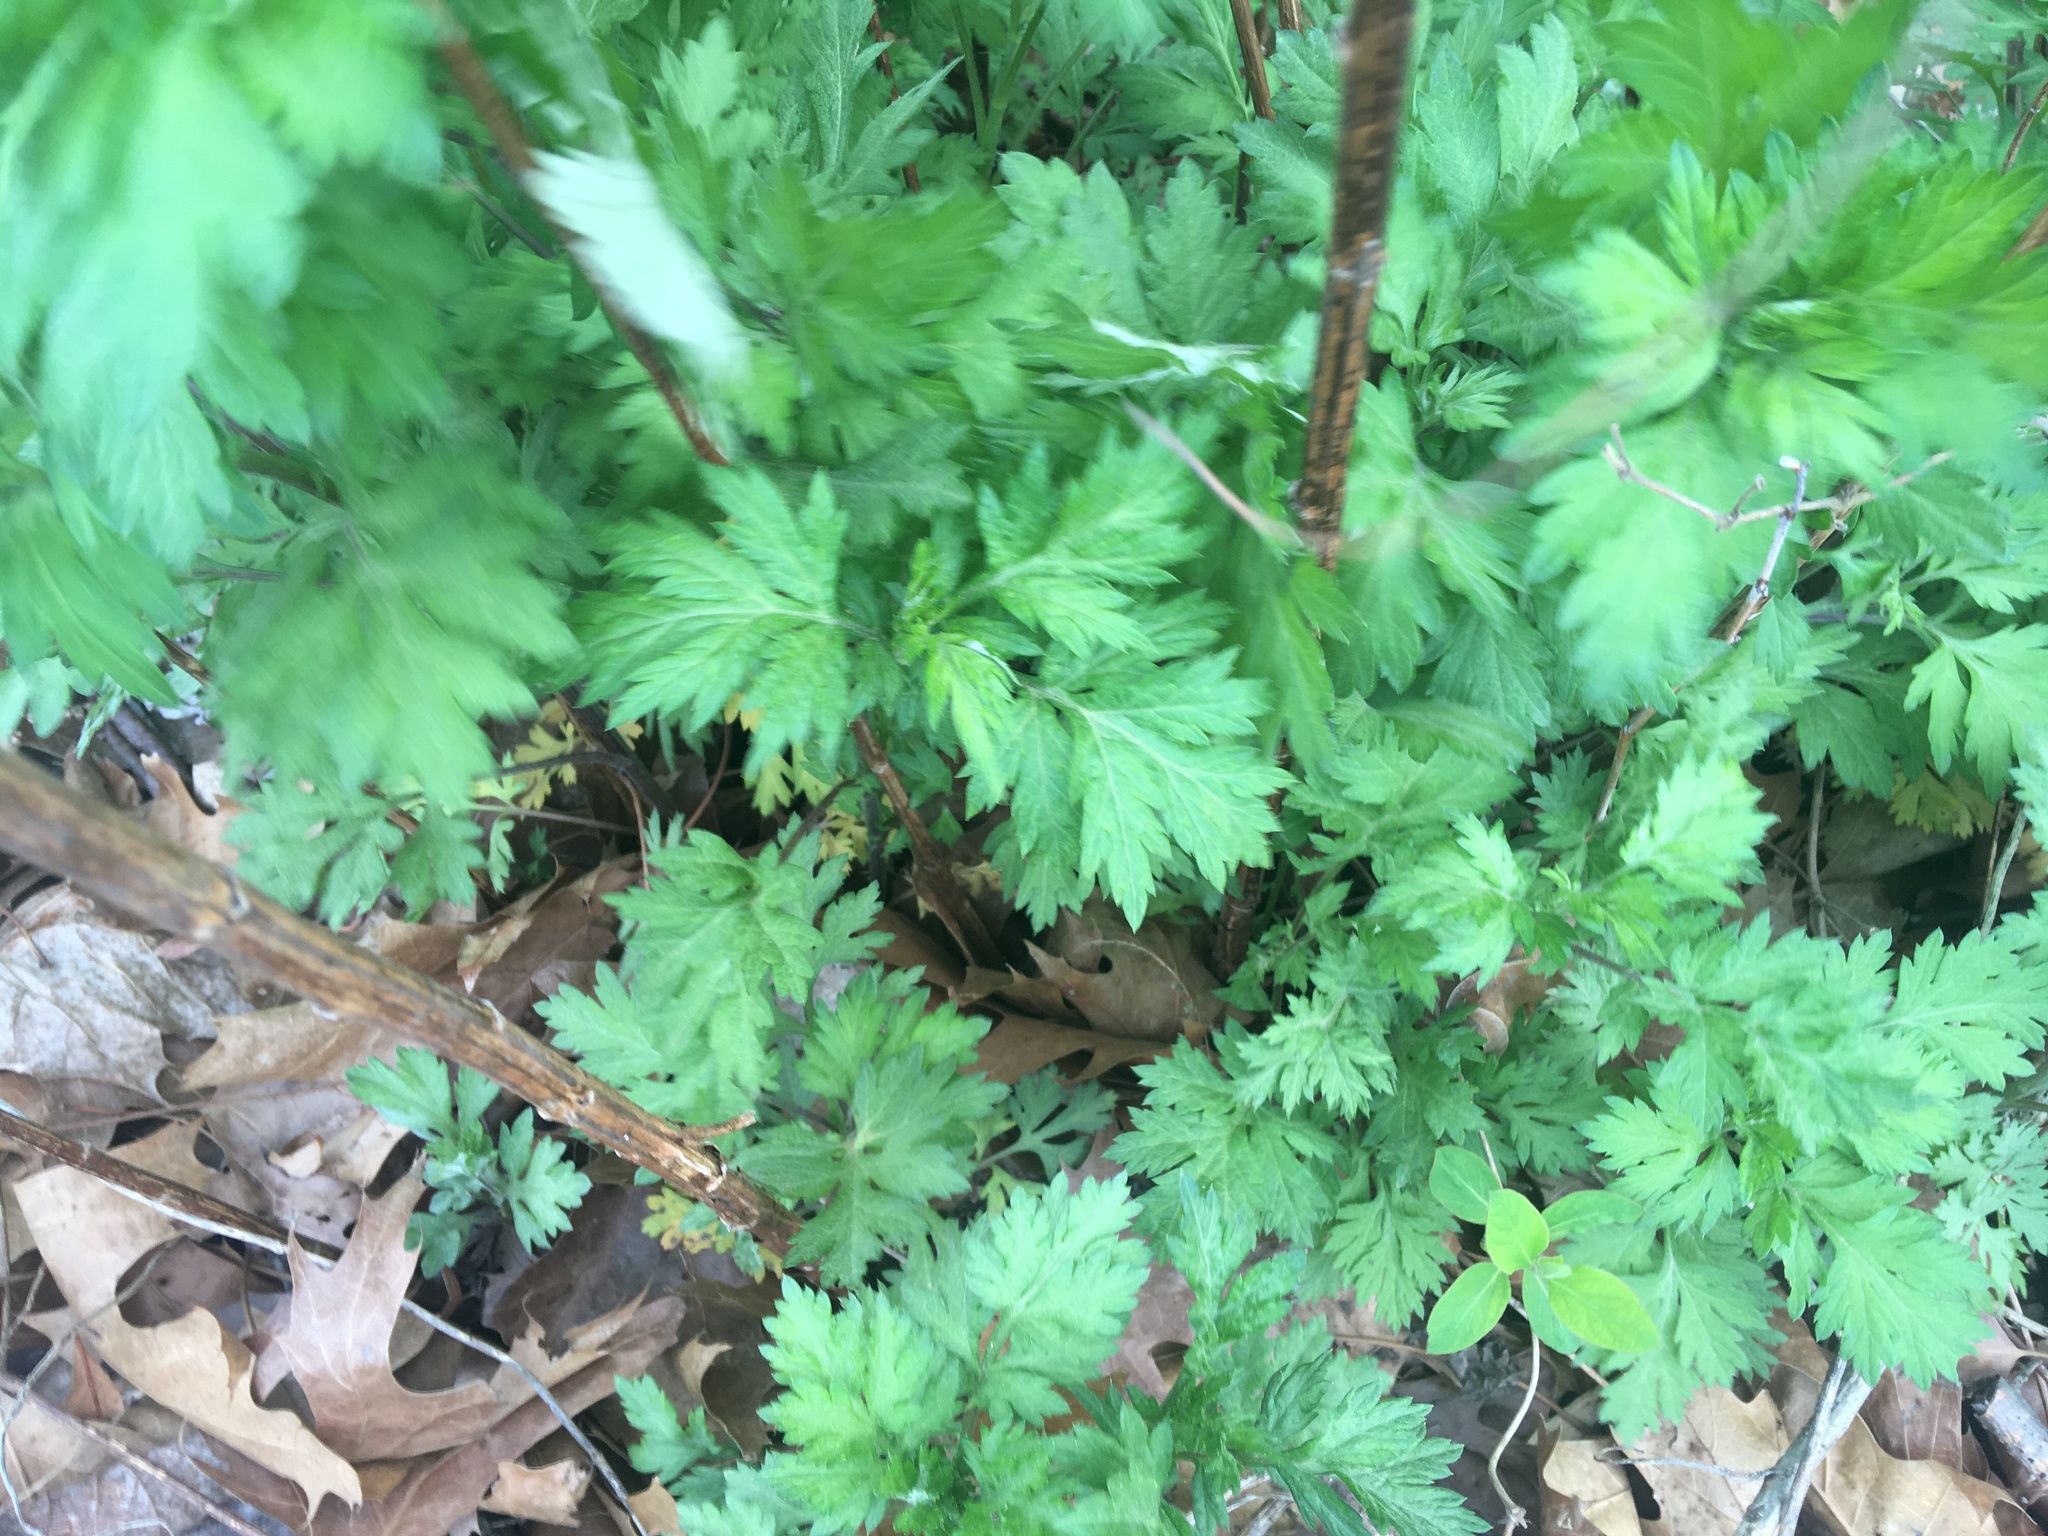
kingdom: Plantae
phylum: Tracheophyta
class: Magnoliopsida
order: Asterales
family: Asteraceae
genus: Artemisia
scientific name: Artemisia vulgaris
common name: Mugwort
